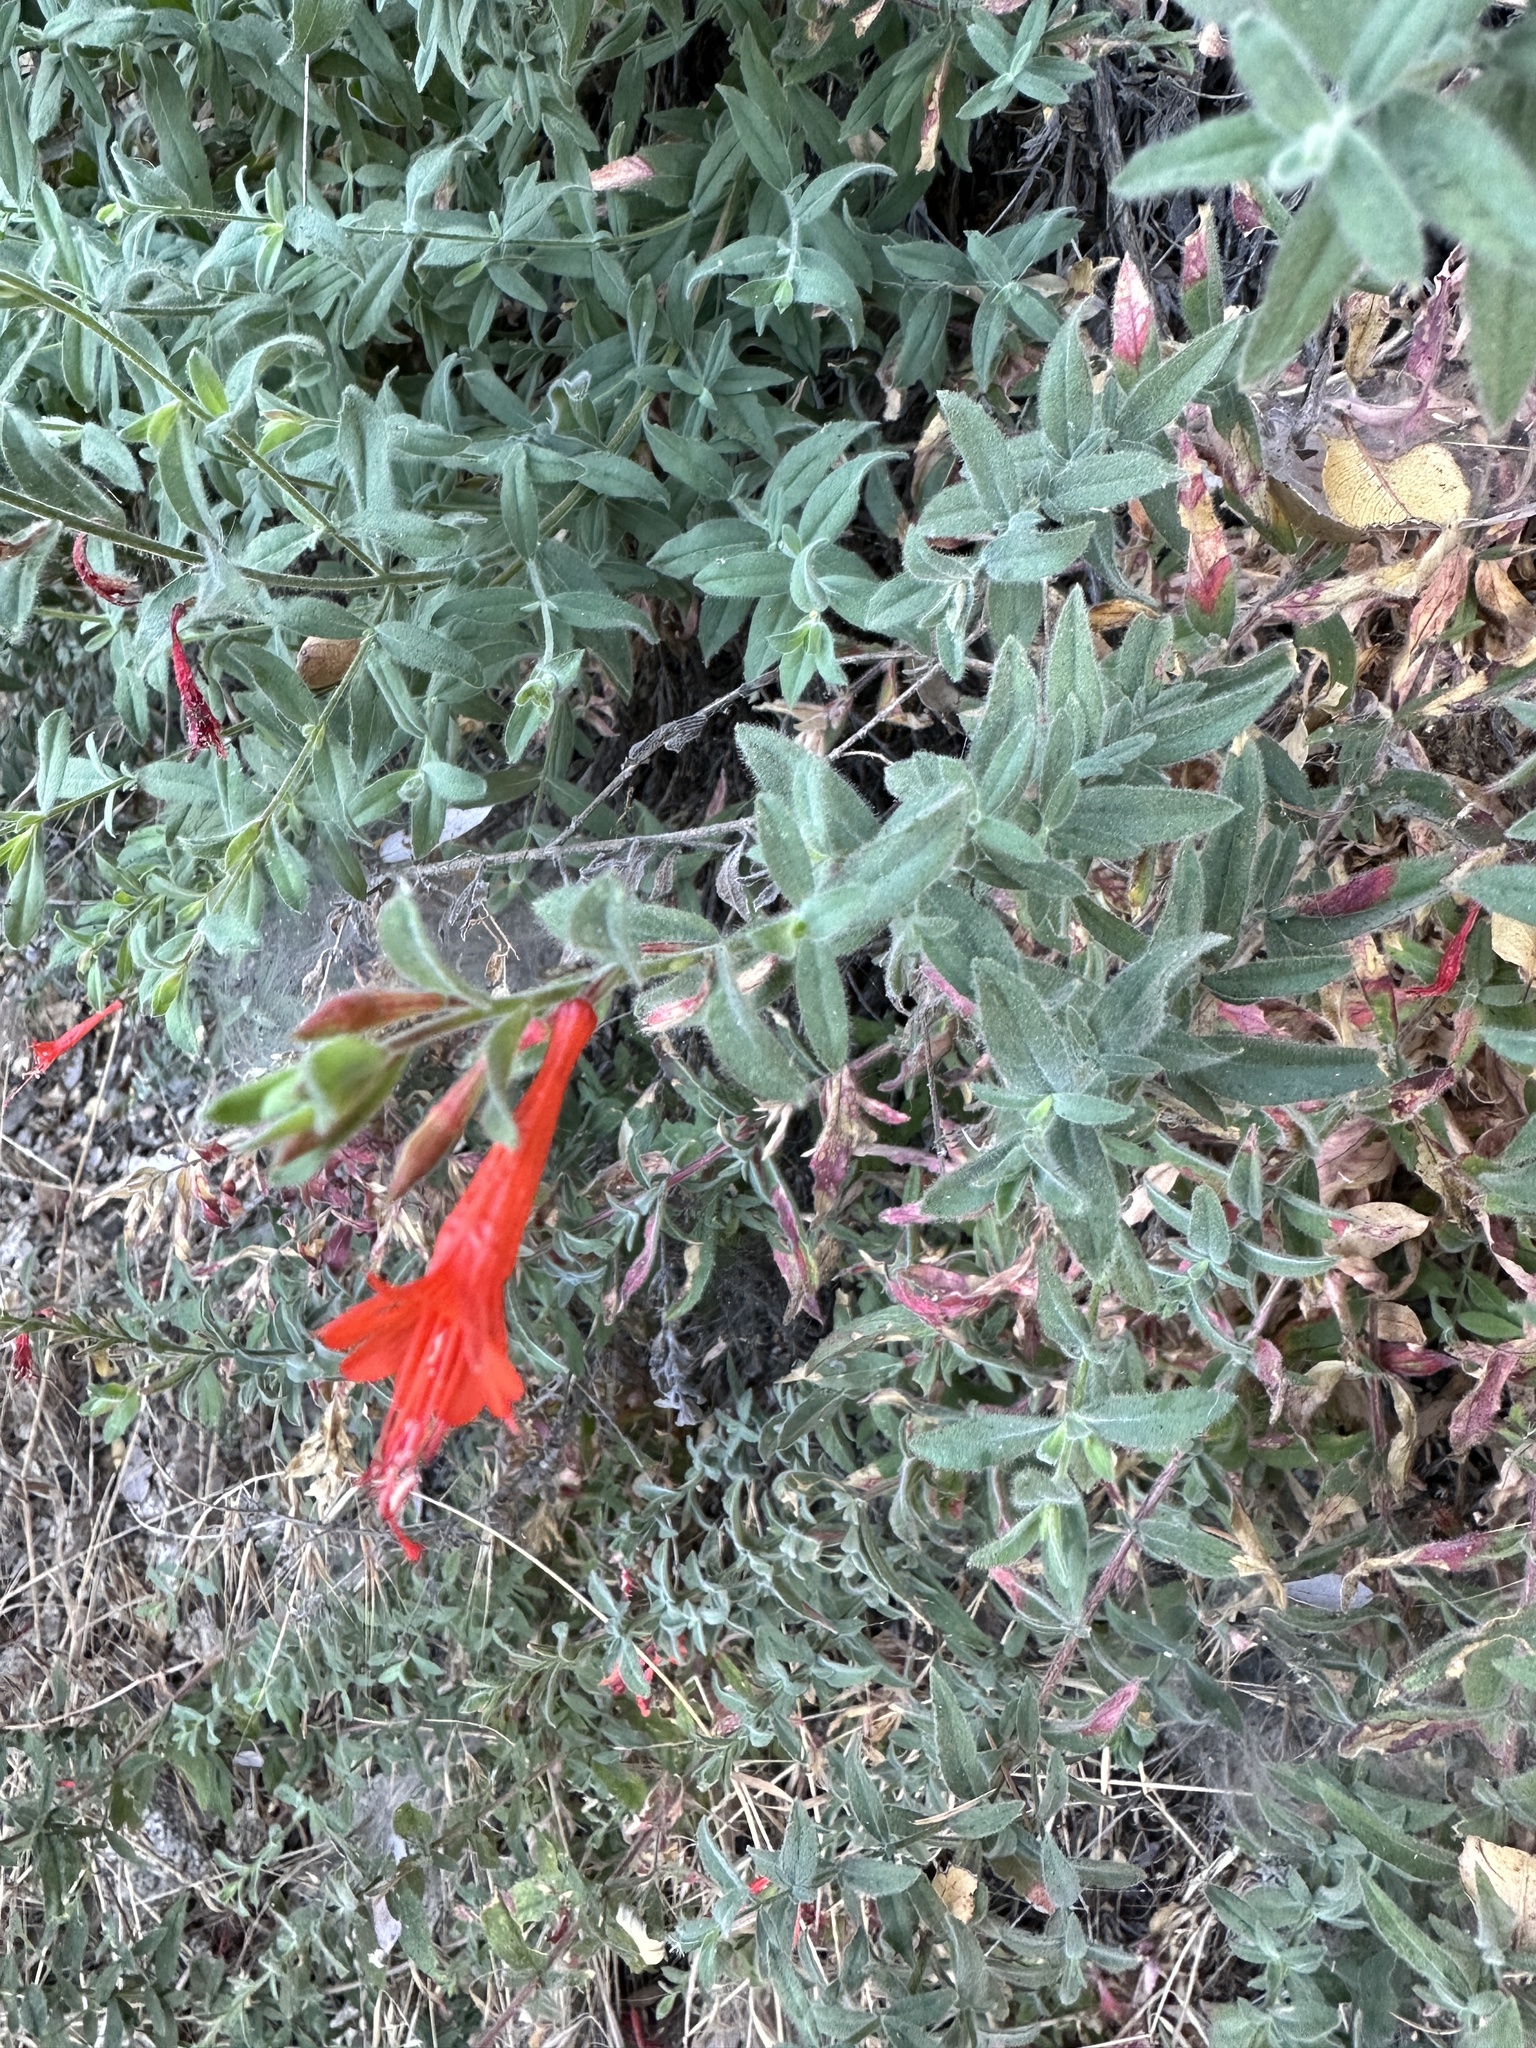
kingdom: Plantae
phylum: Tracheophyta
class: Magnoliopsida
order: Myrtales
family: Onagraceae
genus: Epilobium
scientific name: Epilobium canum
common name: California-fuchsia
